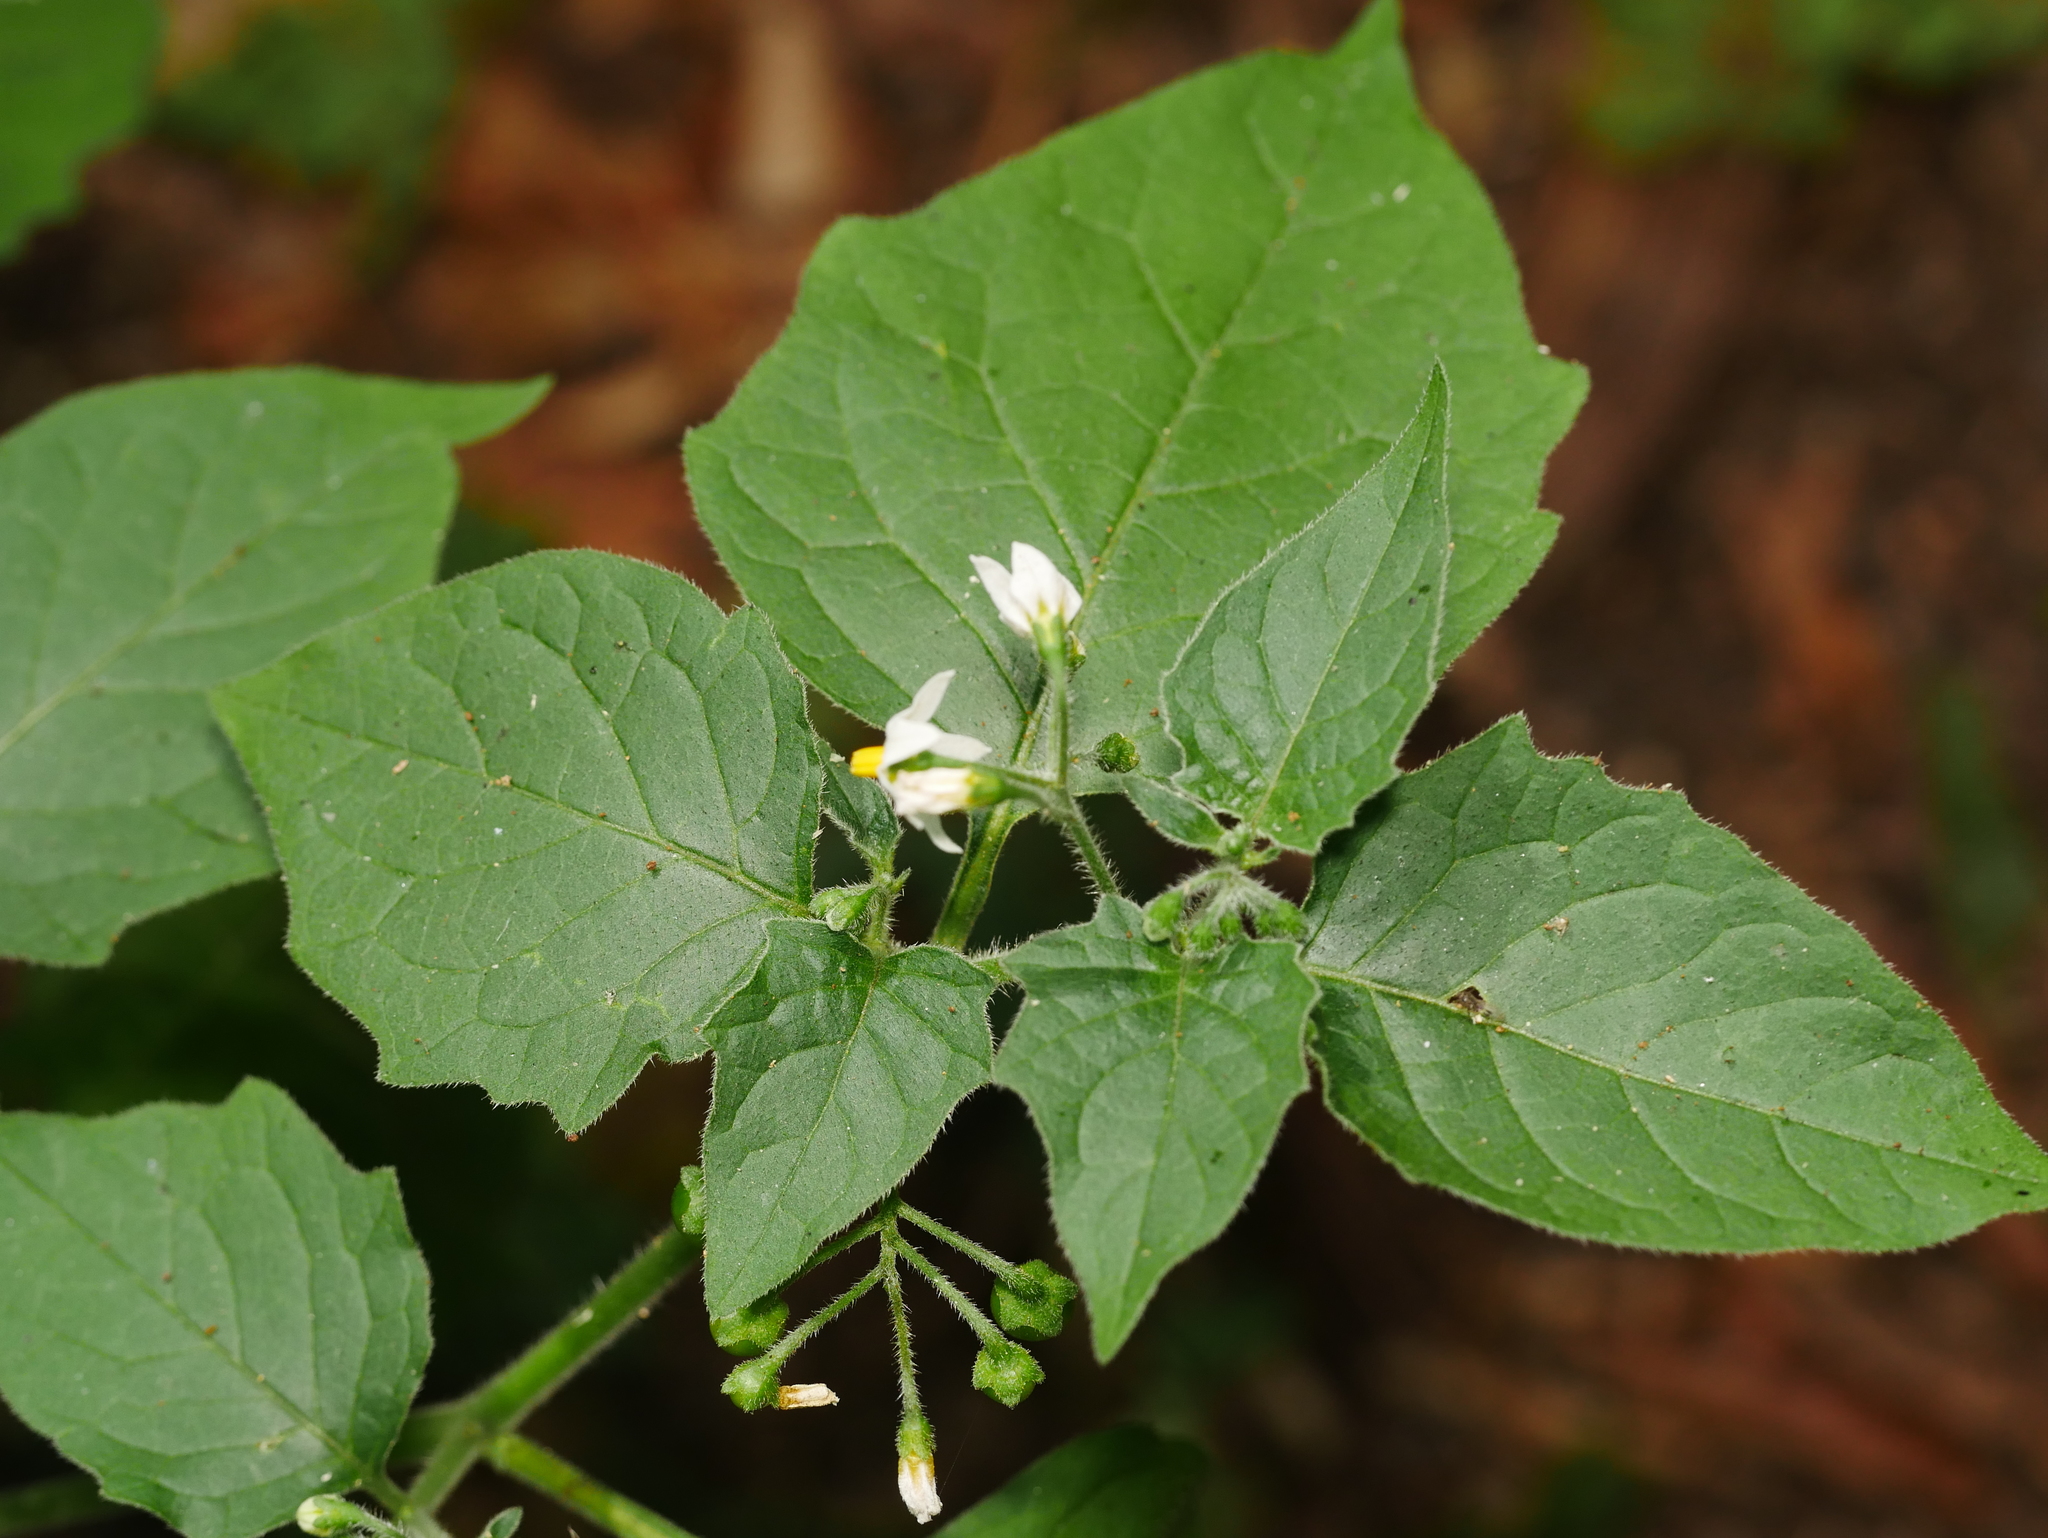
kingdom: Plantae
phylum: Tracheophyta
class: Magnoliopsida
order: Solanales
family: Solanaceae
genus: Solanum
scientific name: Solanum nigrum
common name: Black nightshade
